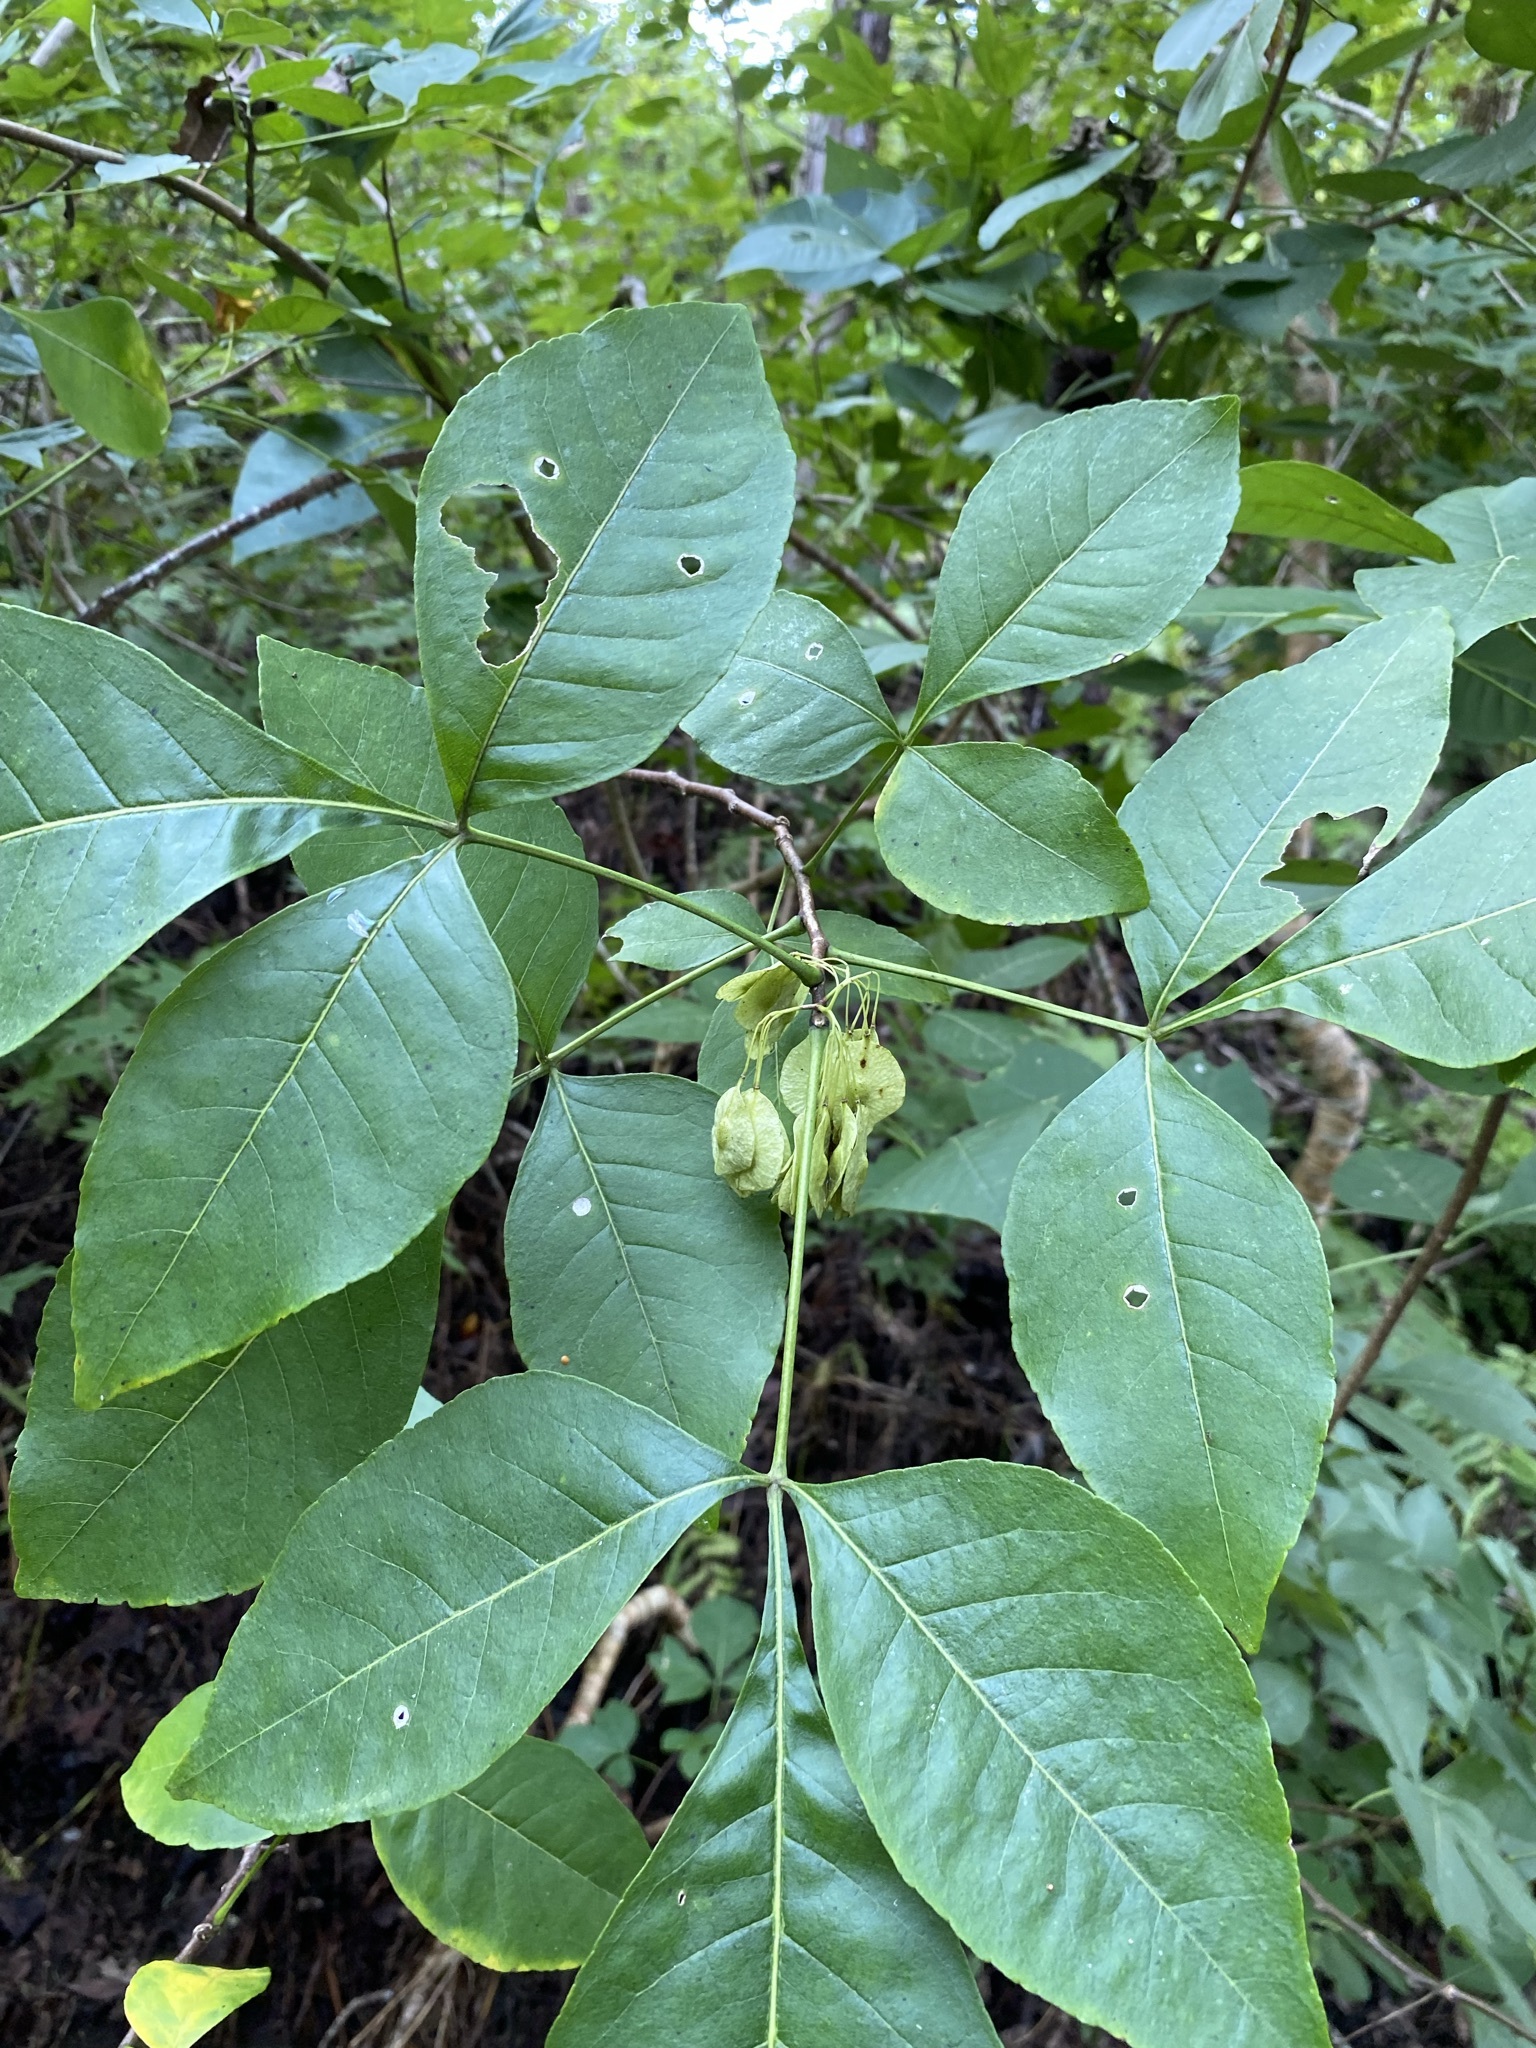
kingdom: Plantae
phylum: Tracheophyta
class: Magnoliopsida
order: Sapindales
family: Rutaceae
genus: Ptelea
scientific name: Ptelea trifoliata
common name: Common hop-tree
